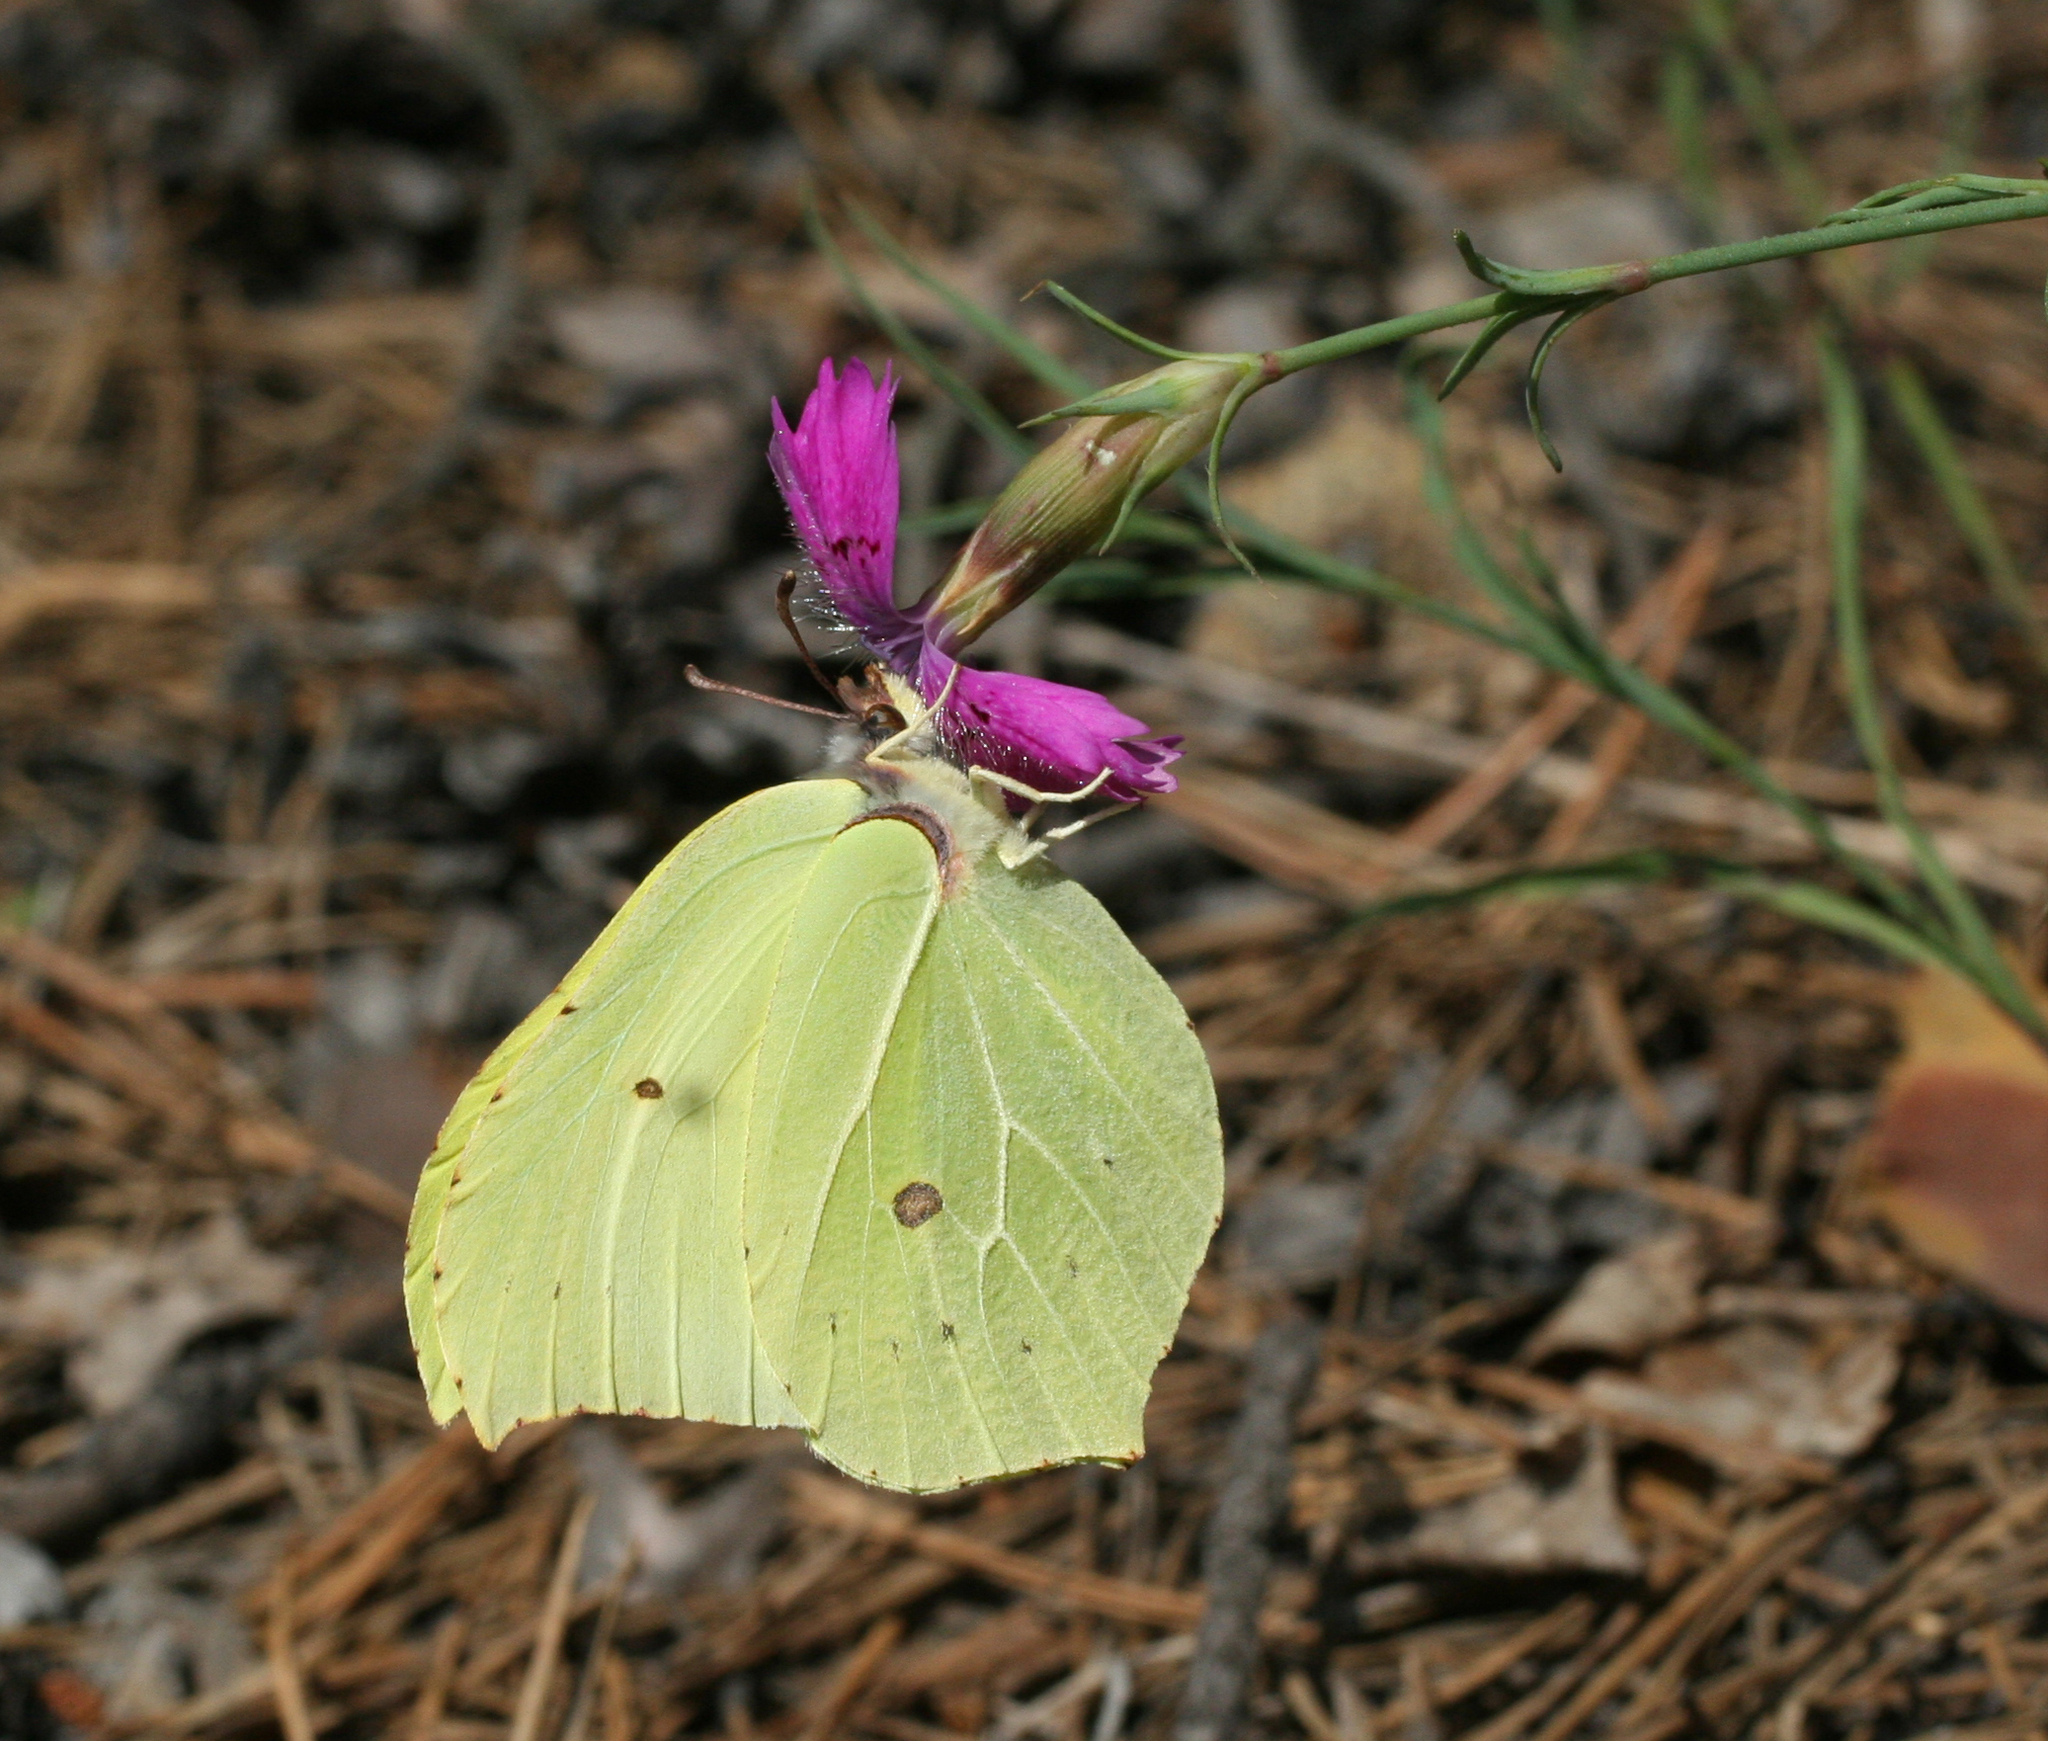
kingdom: Animalia
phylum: Arthropoda
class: Insecta
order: Lepidoptera
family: Pieridae
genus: Gonepteryx
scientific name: Gonepteryx rhamni
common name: Brimstone
